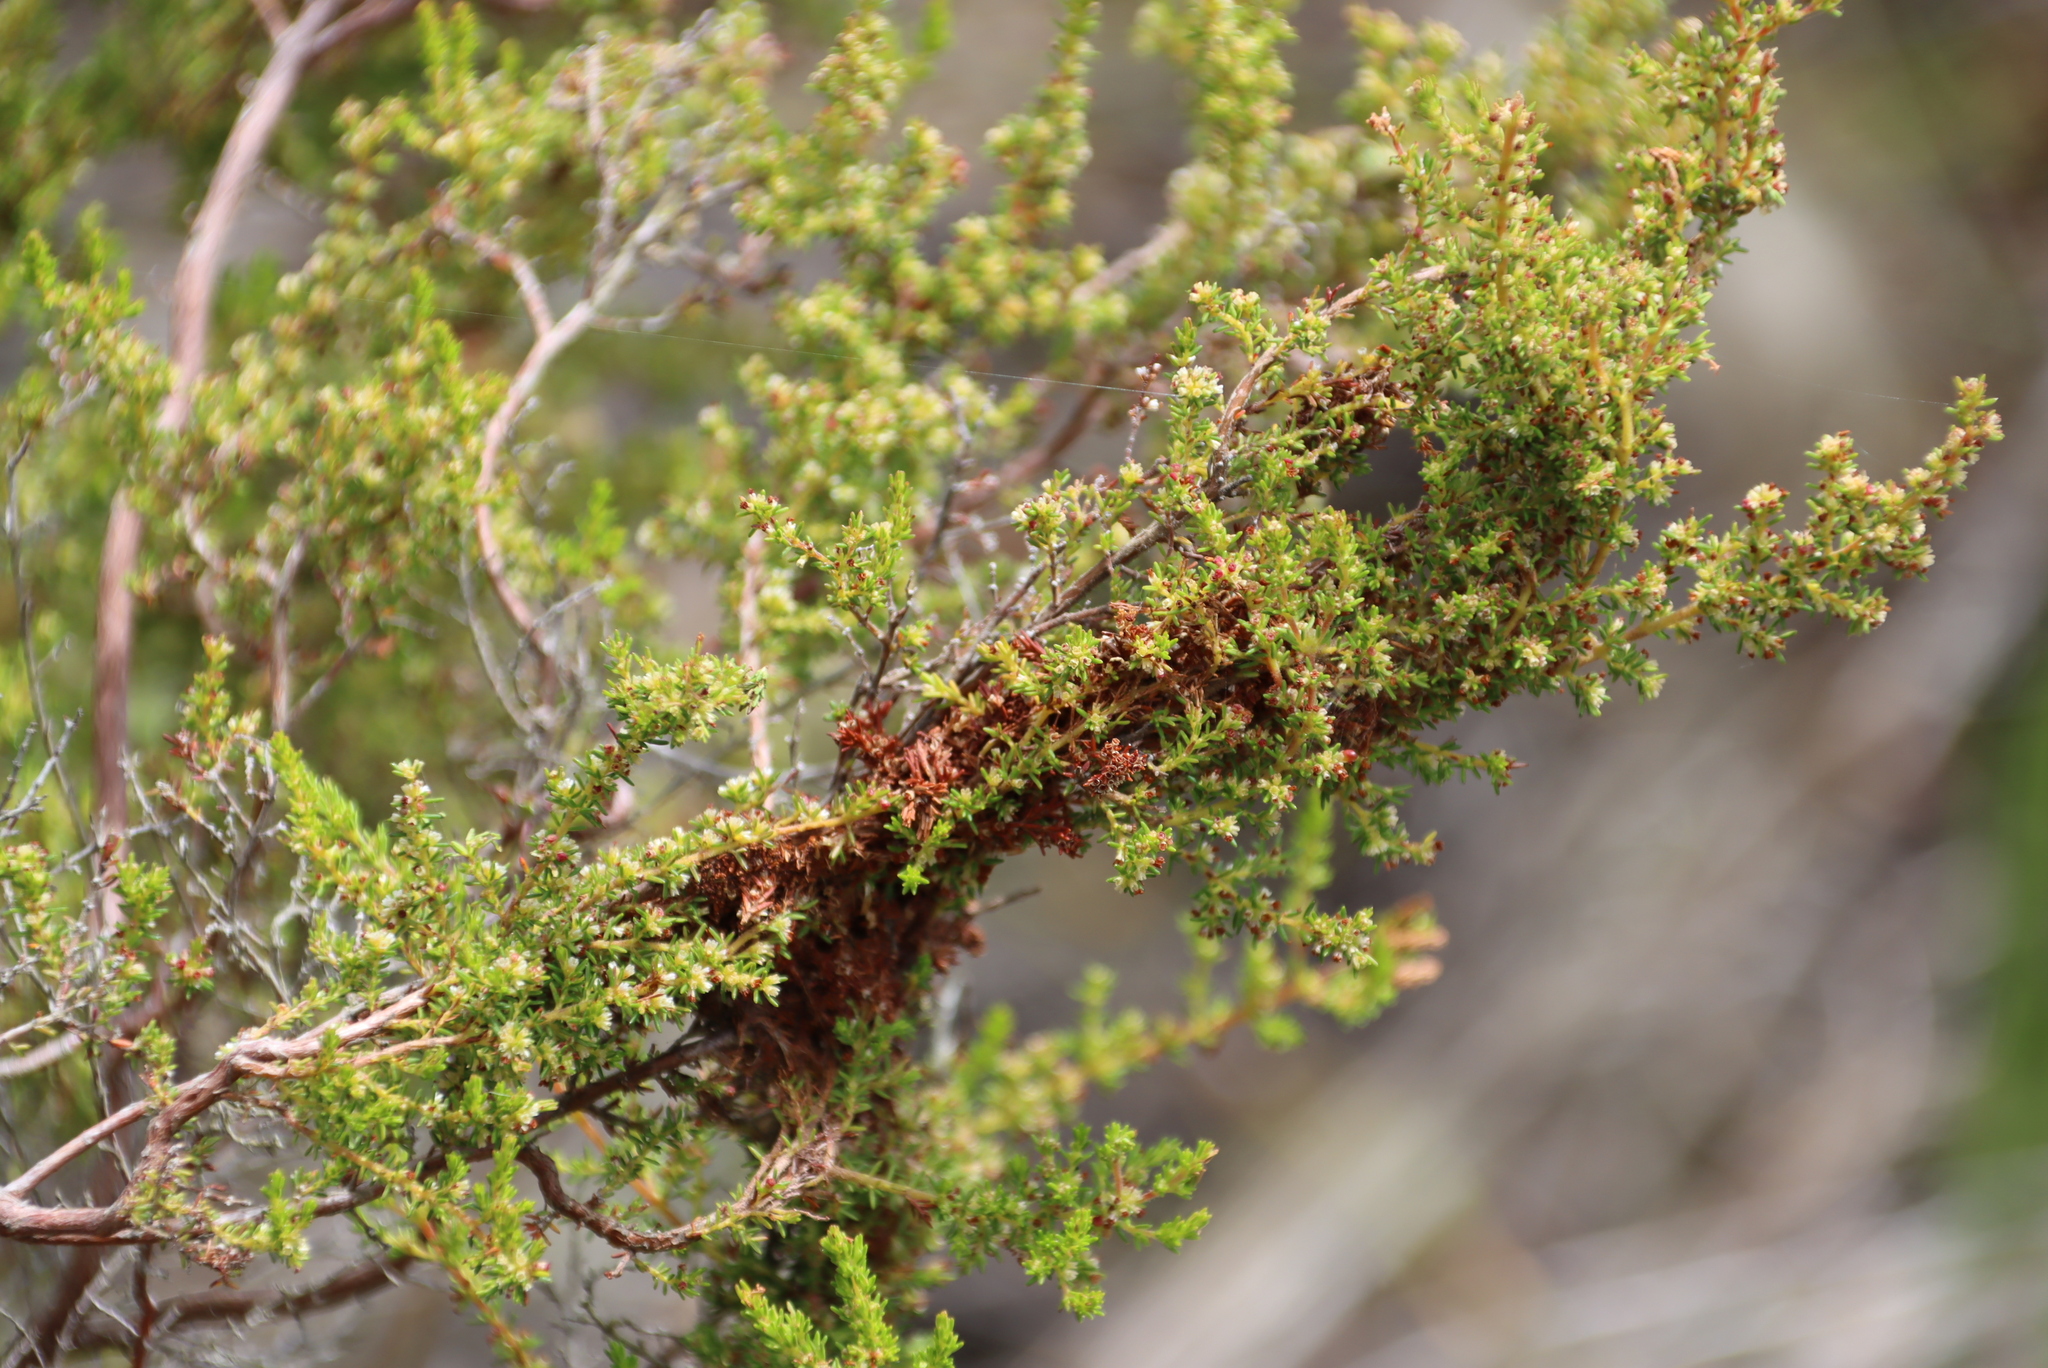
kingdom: Plantae
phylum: Tracheophyta
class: Magnoliopsida
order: Ericales
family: Ericaceae
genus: Erica
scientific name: Erica muscosa
